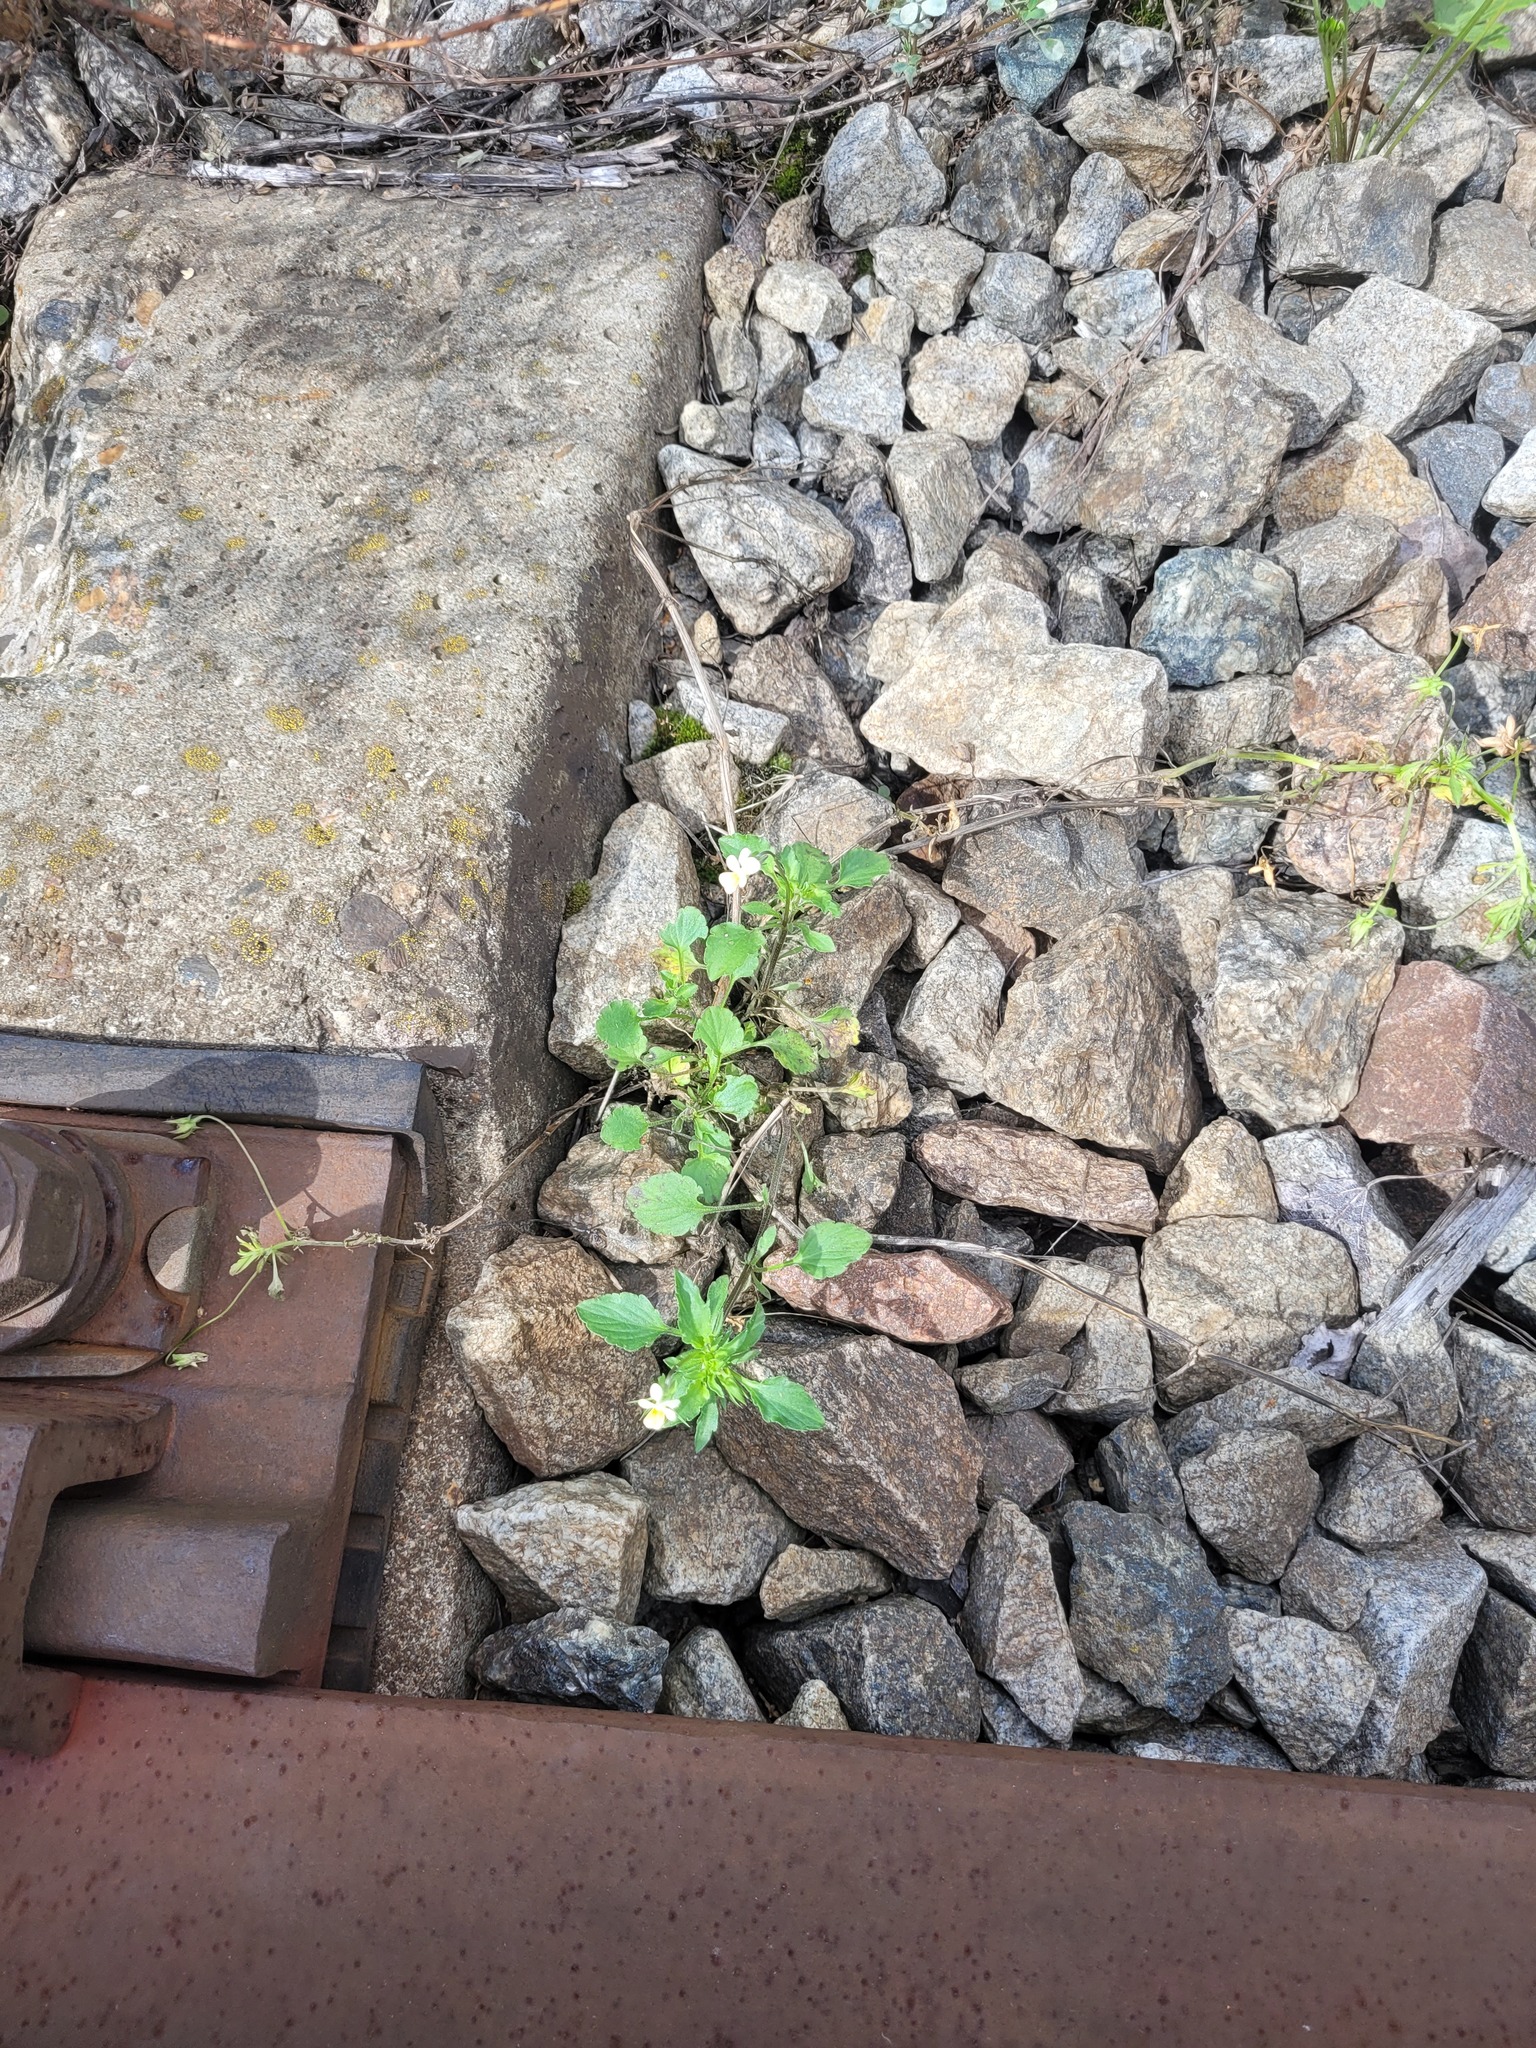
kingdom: Plantae
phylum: Tracheophyta
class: Magnoliopsida
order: Malpighiales
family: Violaceae
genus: Viola
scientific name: Viola arvensis
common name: Field pansy
